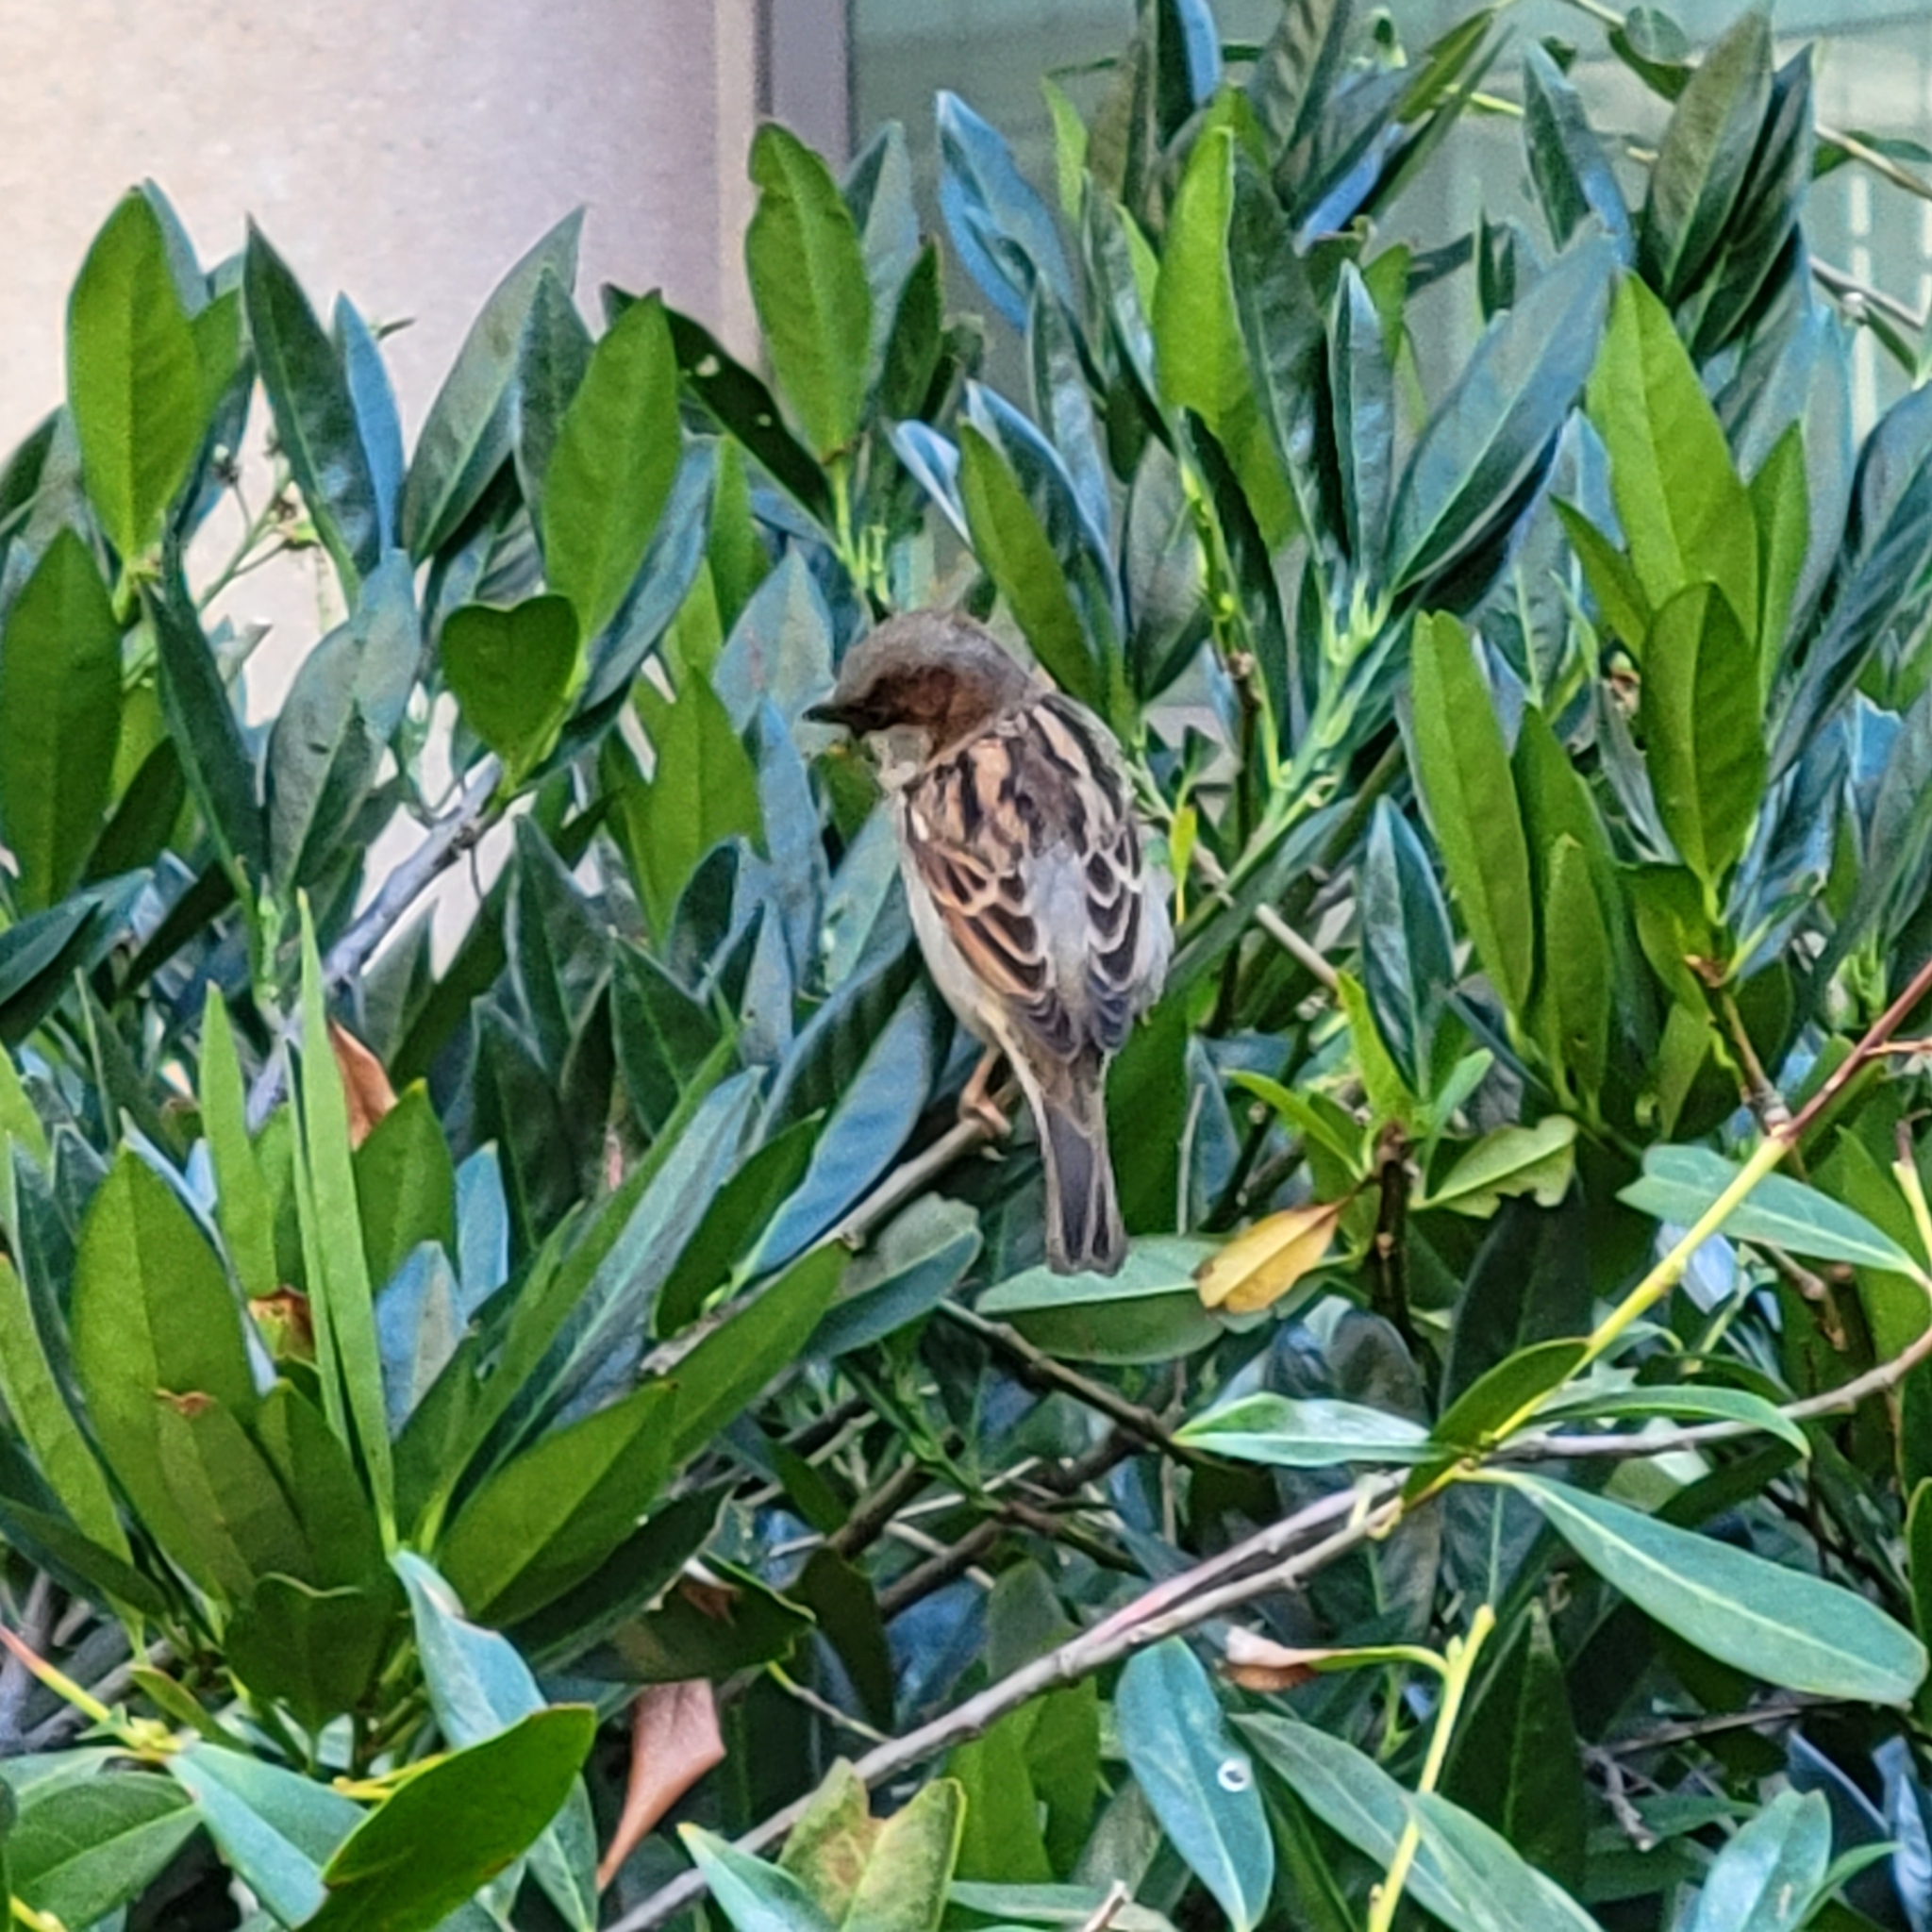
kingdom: Animalia
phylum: Chordata
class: Aves
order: Passeriformes
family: Passeridae
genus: Passer
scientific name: Passer domesticus
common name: House sparrow
